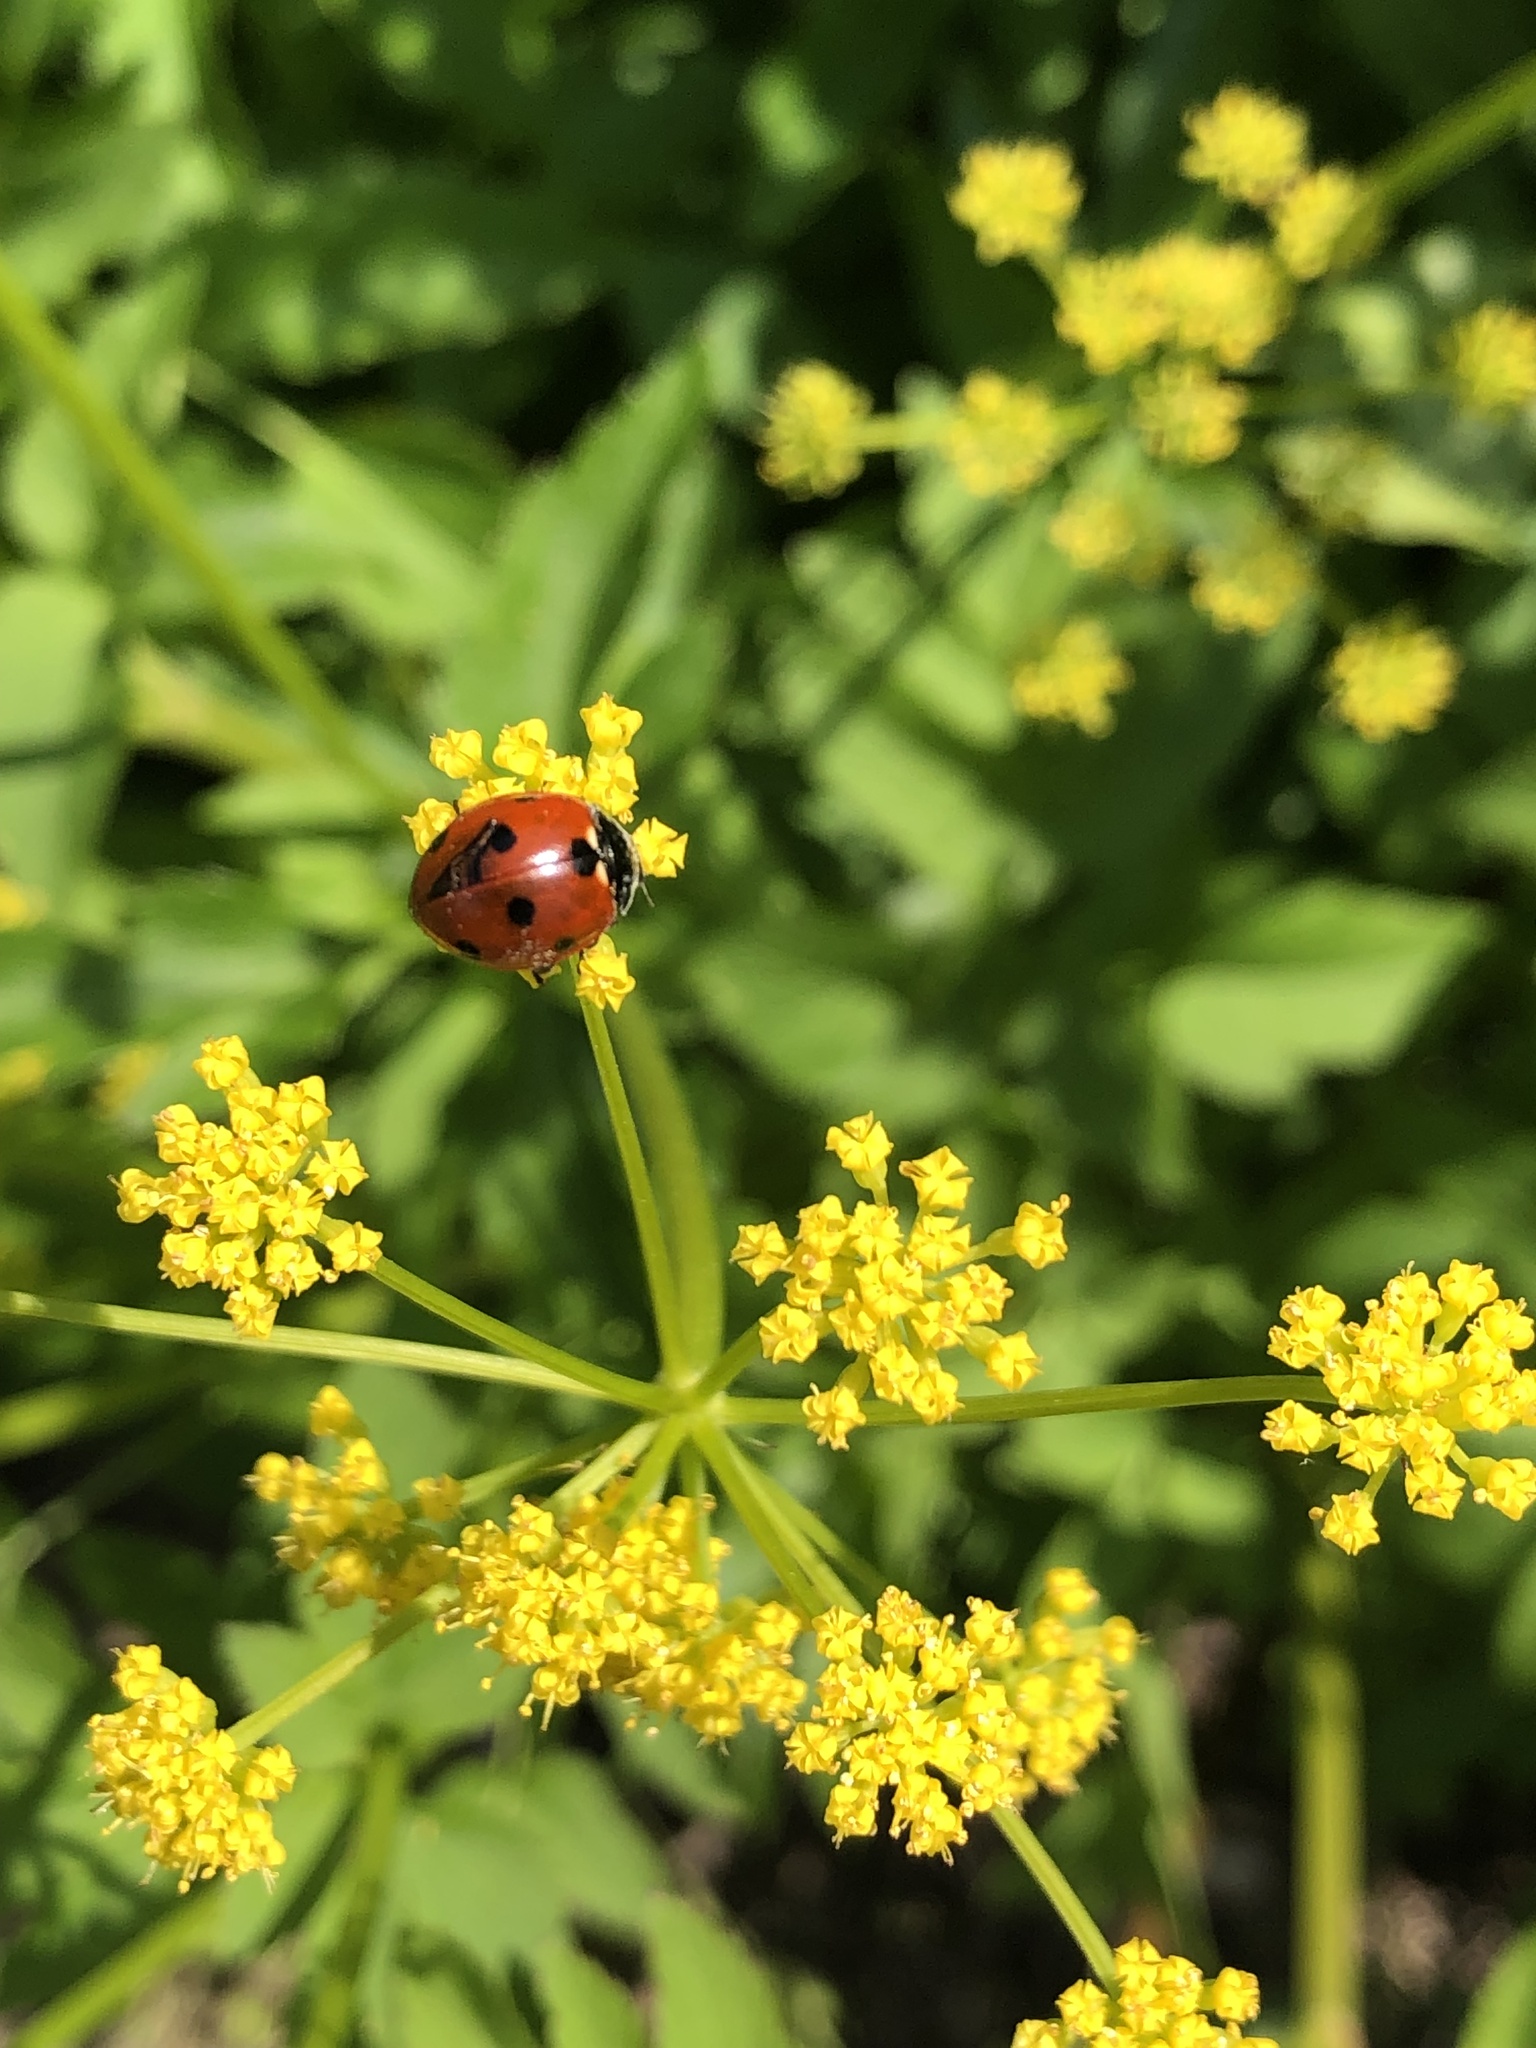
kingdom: Animalia
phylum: Arthropoda
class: Insecta
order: Coleoptera
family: Coccinellidae
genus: Coccinella
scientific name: Coccinella septempunctata
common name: Sevenspotted lady beetle
